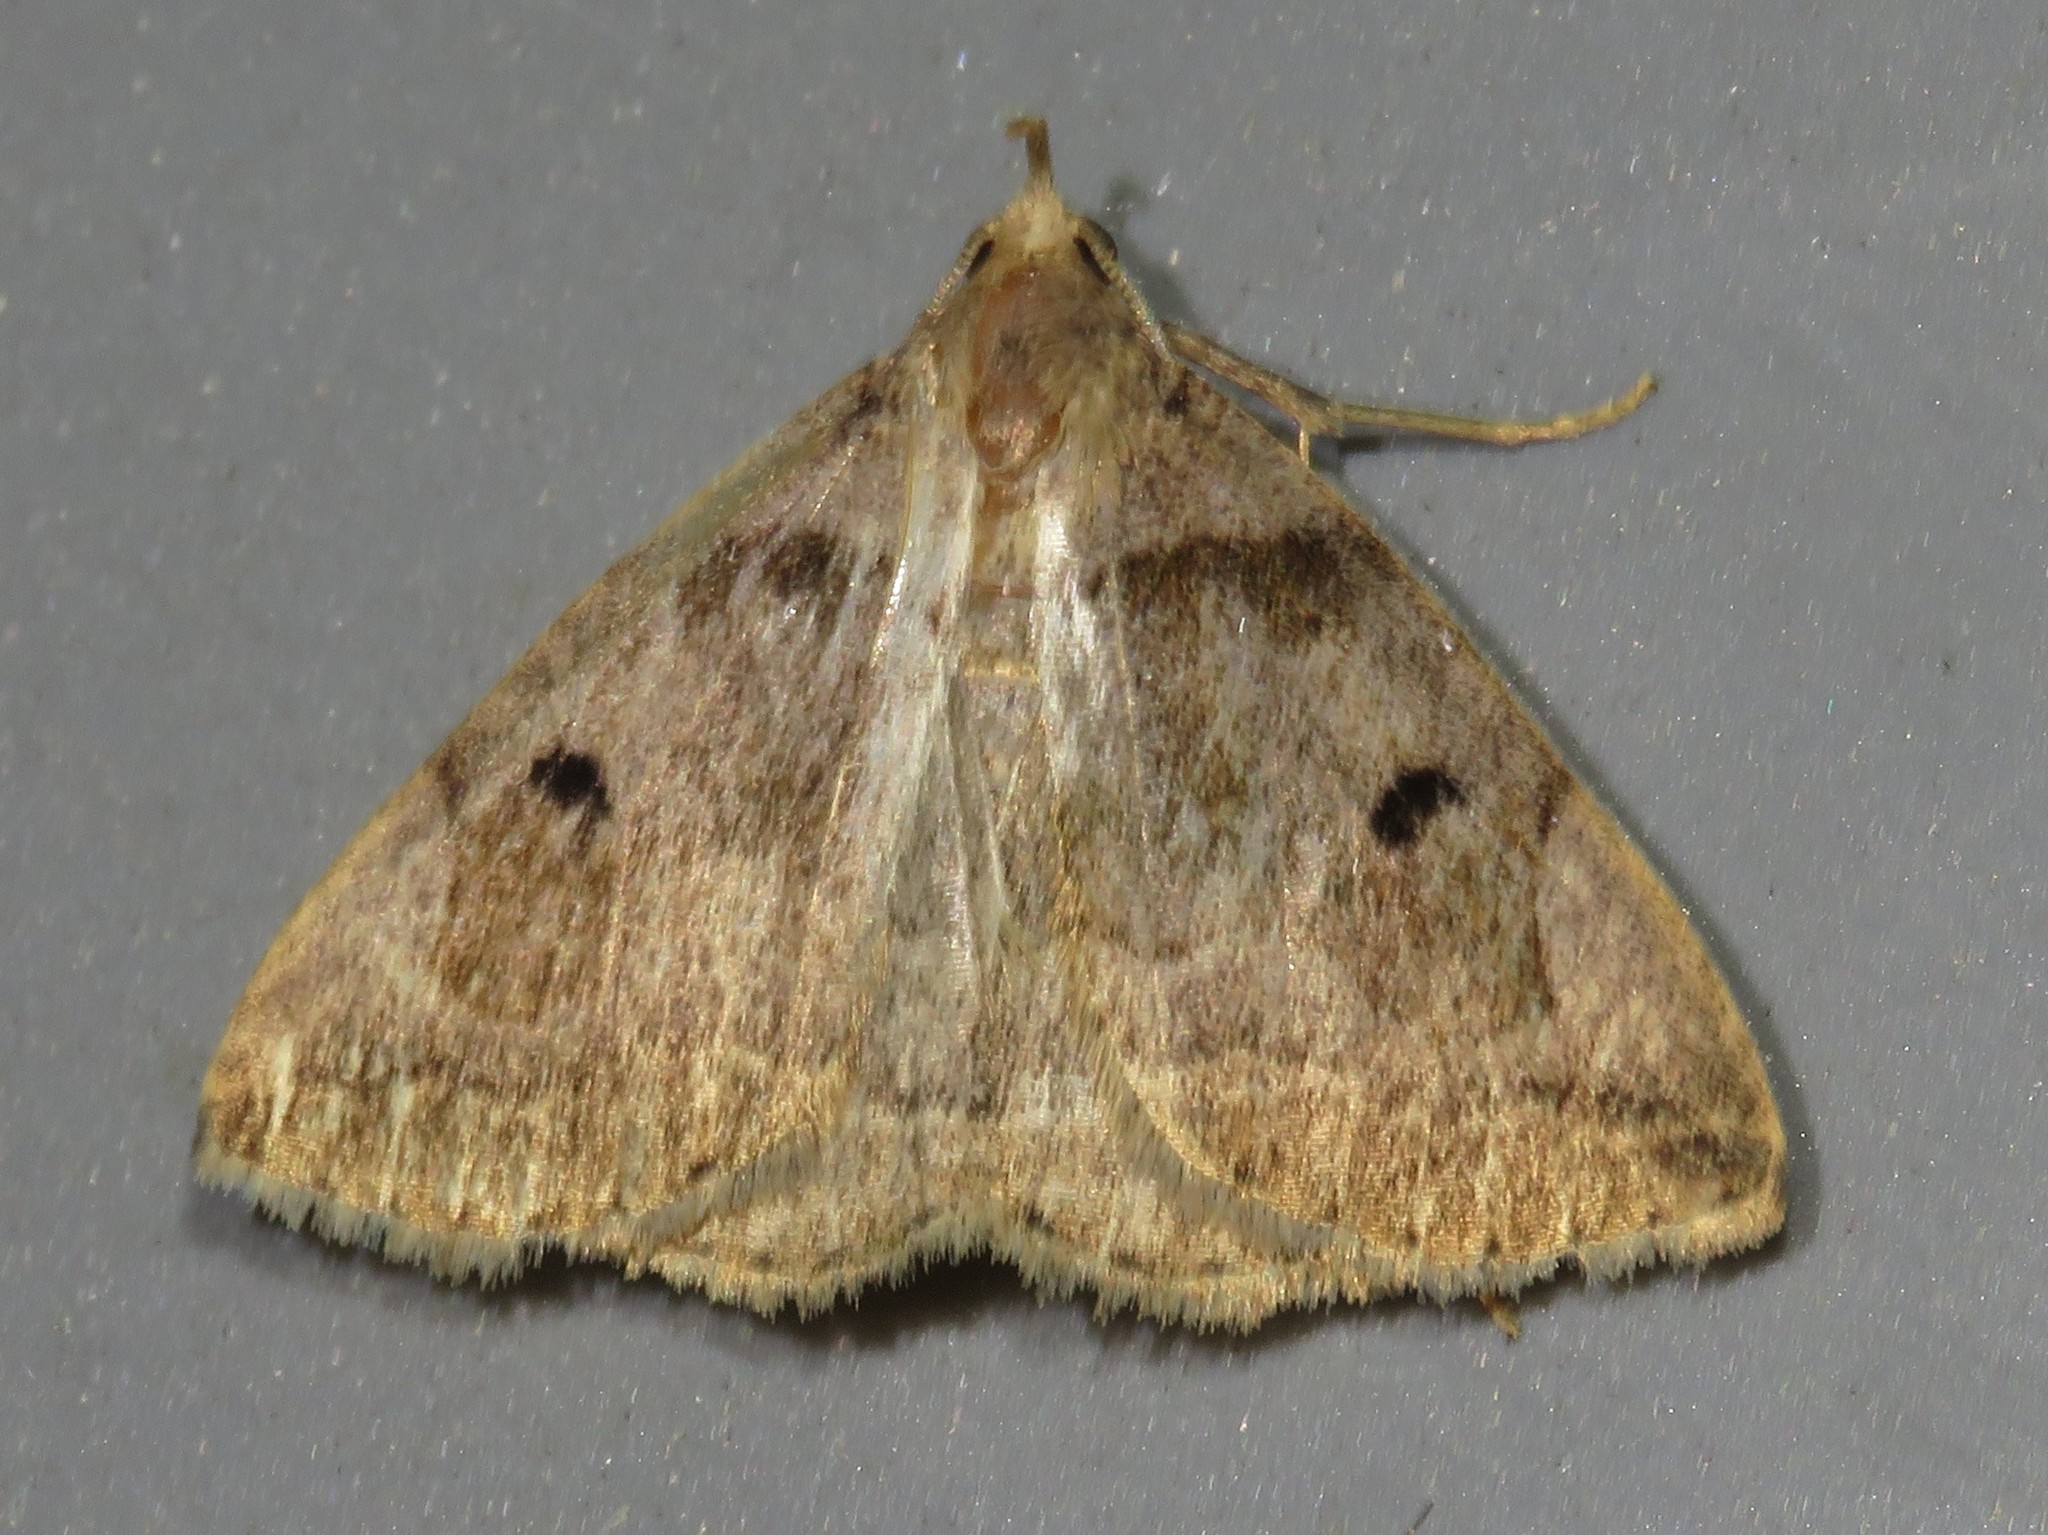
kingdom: Animalia
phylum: Arthropoda
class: Insecta
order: Lepidoptera
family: Erebidae
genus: Zanclognatha
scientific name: Zanclognatha laevigata
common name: Variable fan-foot
